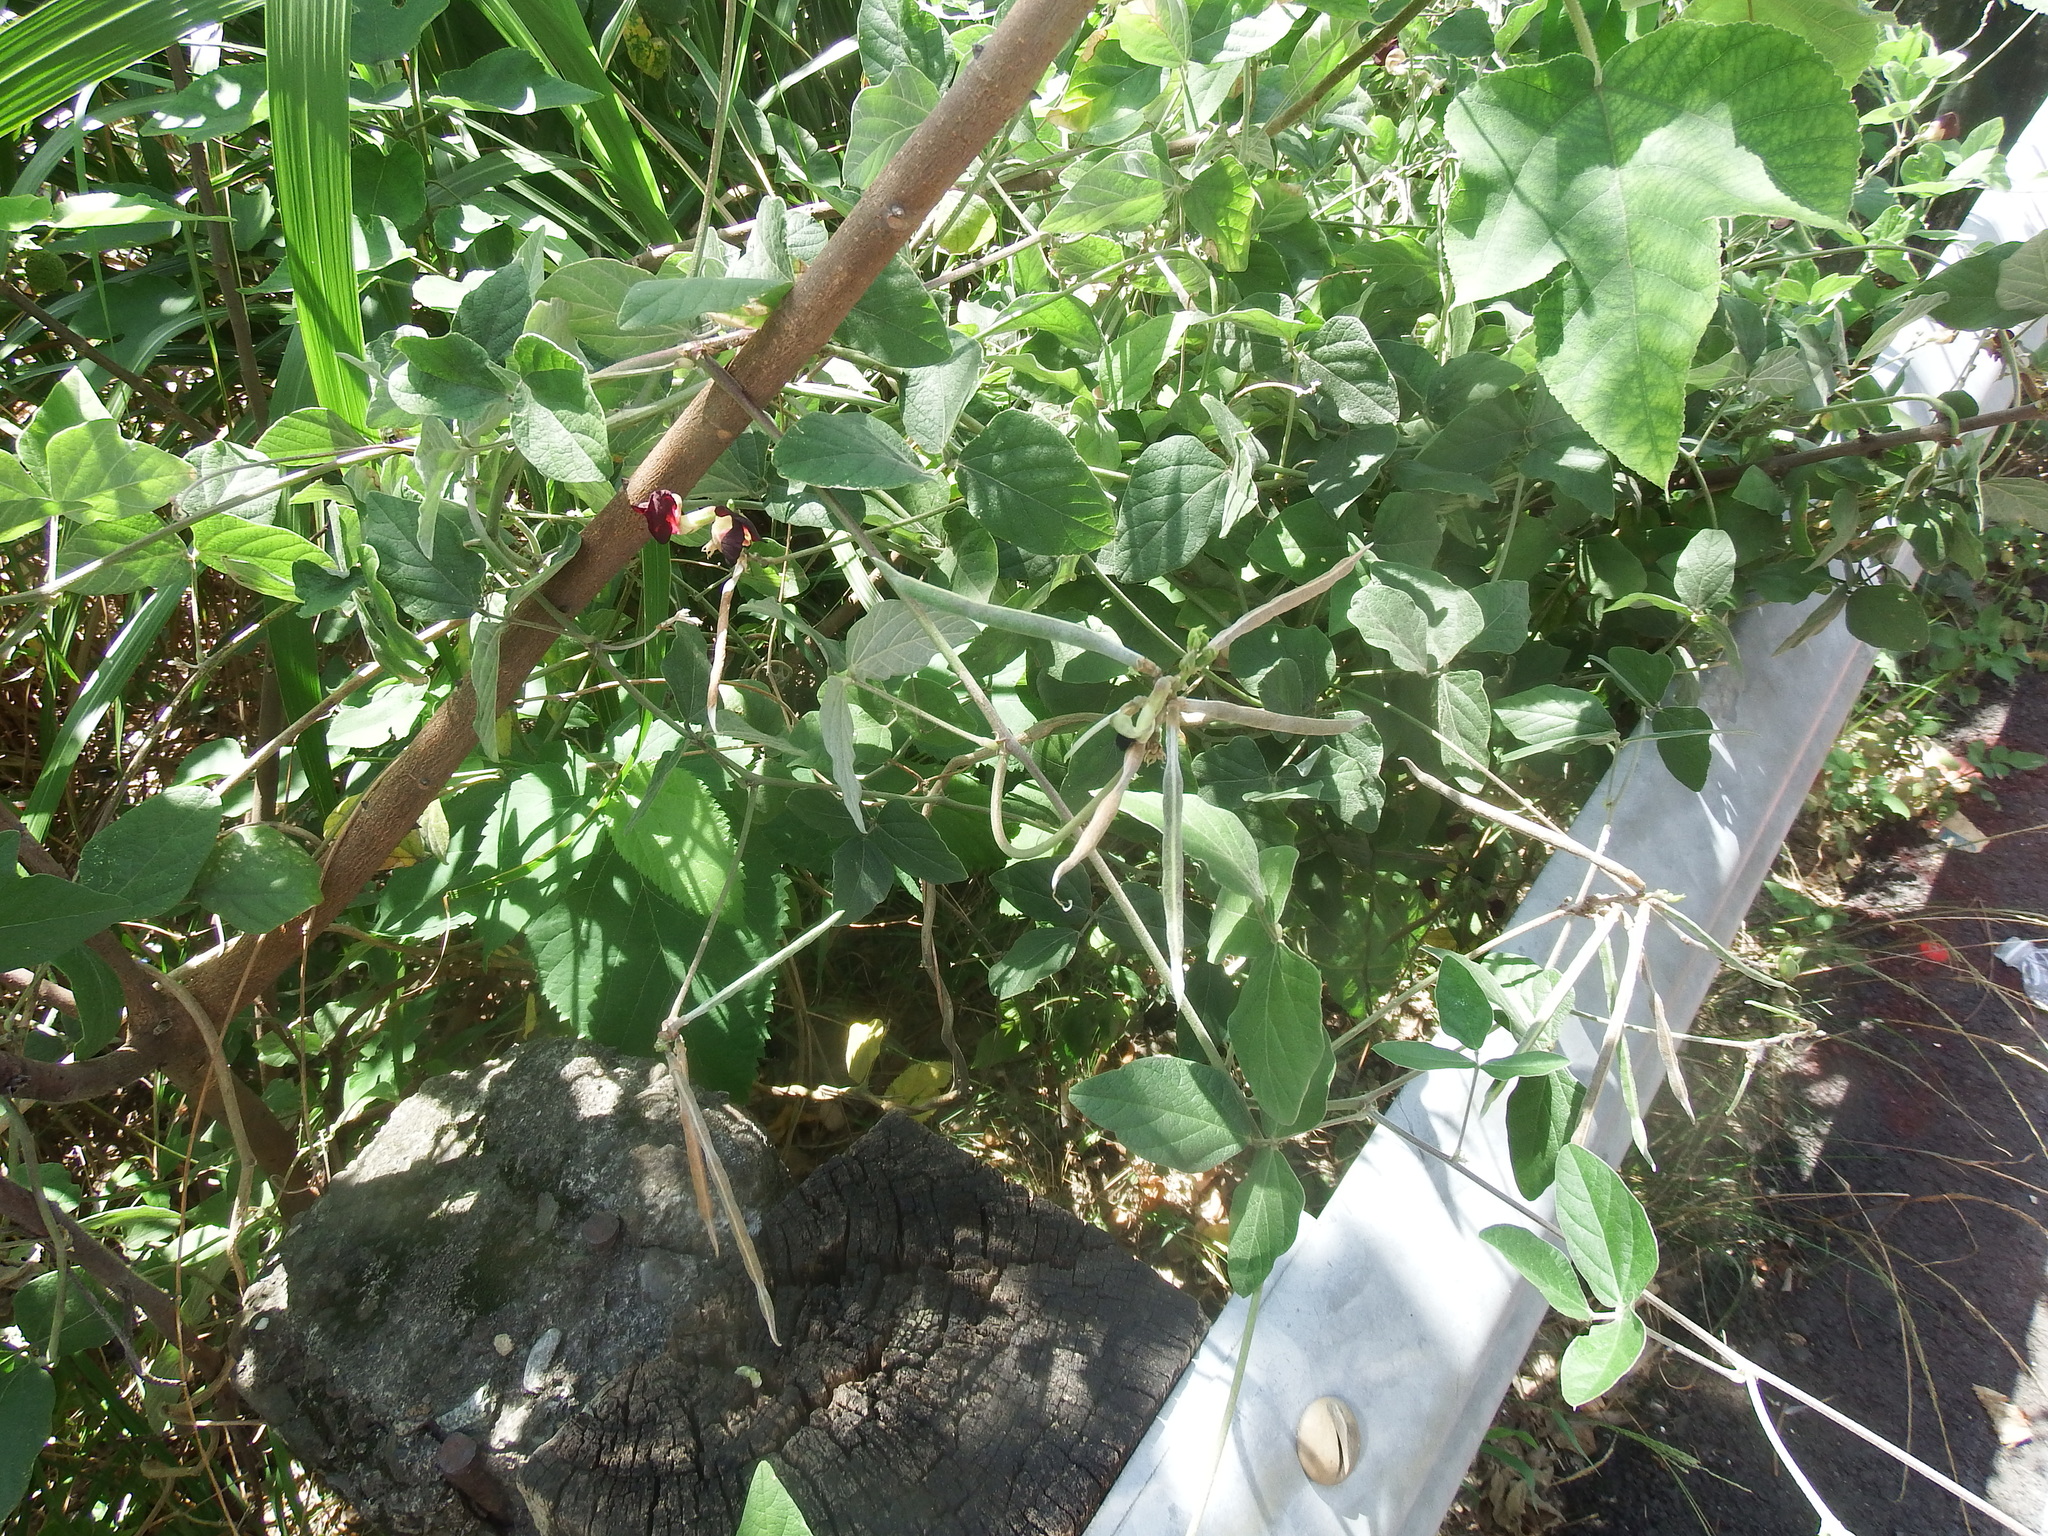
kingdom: Plantae
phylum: Tracheophyta
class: Magnoliopsida
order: Fabales
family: Fabaceae
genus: Macroptilium
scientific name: Macroptilium atropurpureum
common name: Purple bushbean
